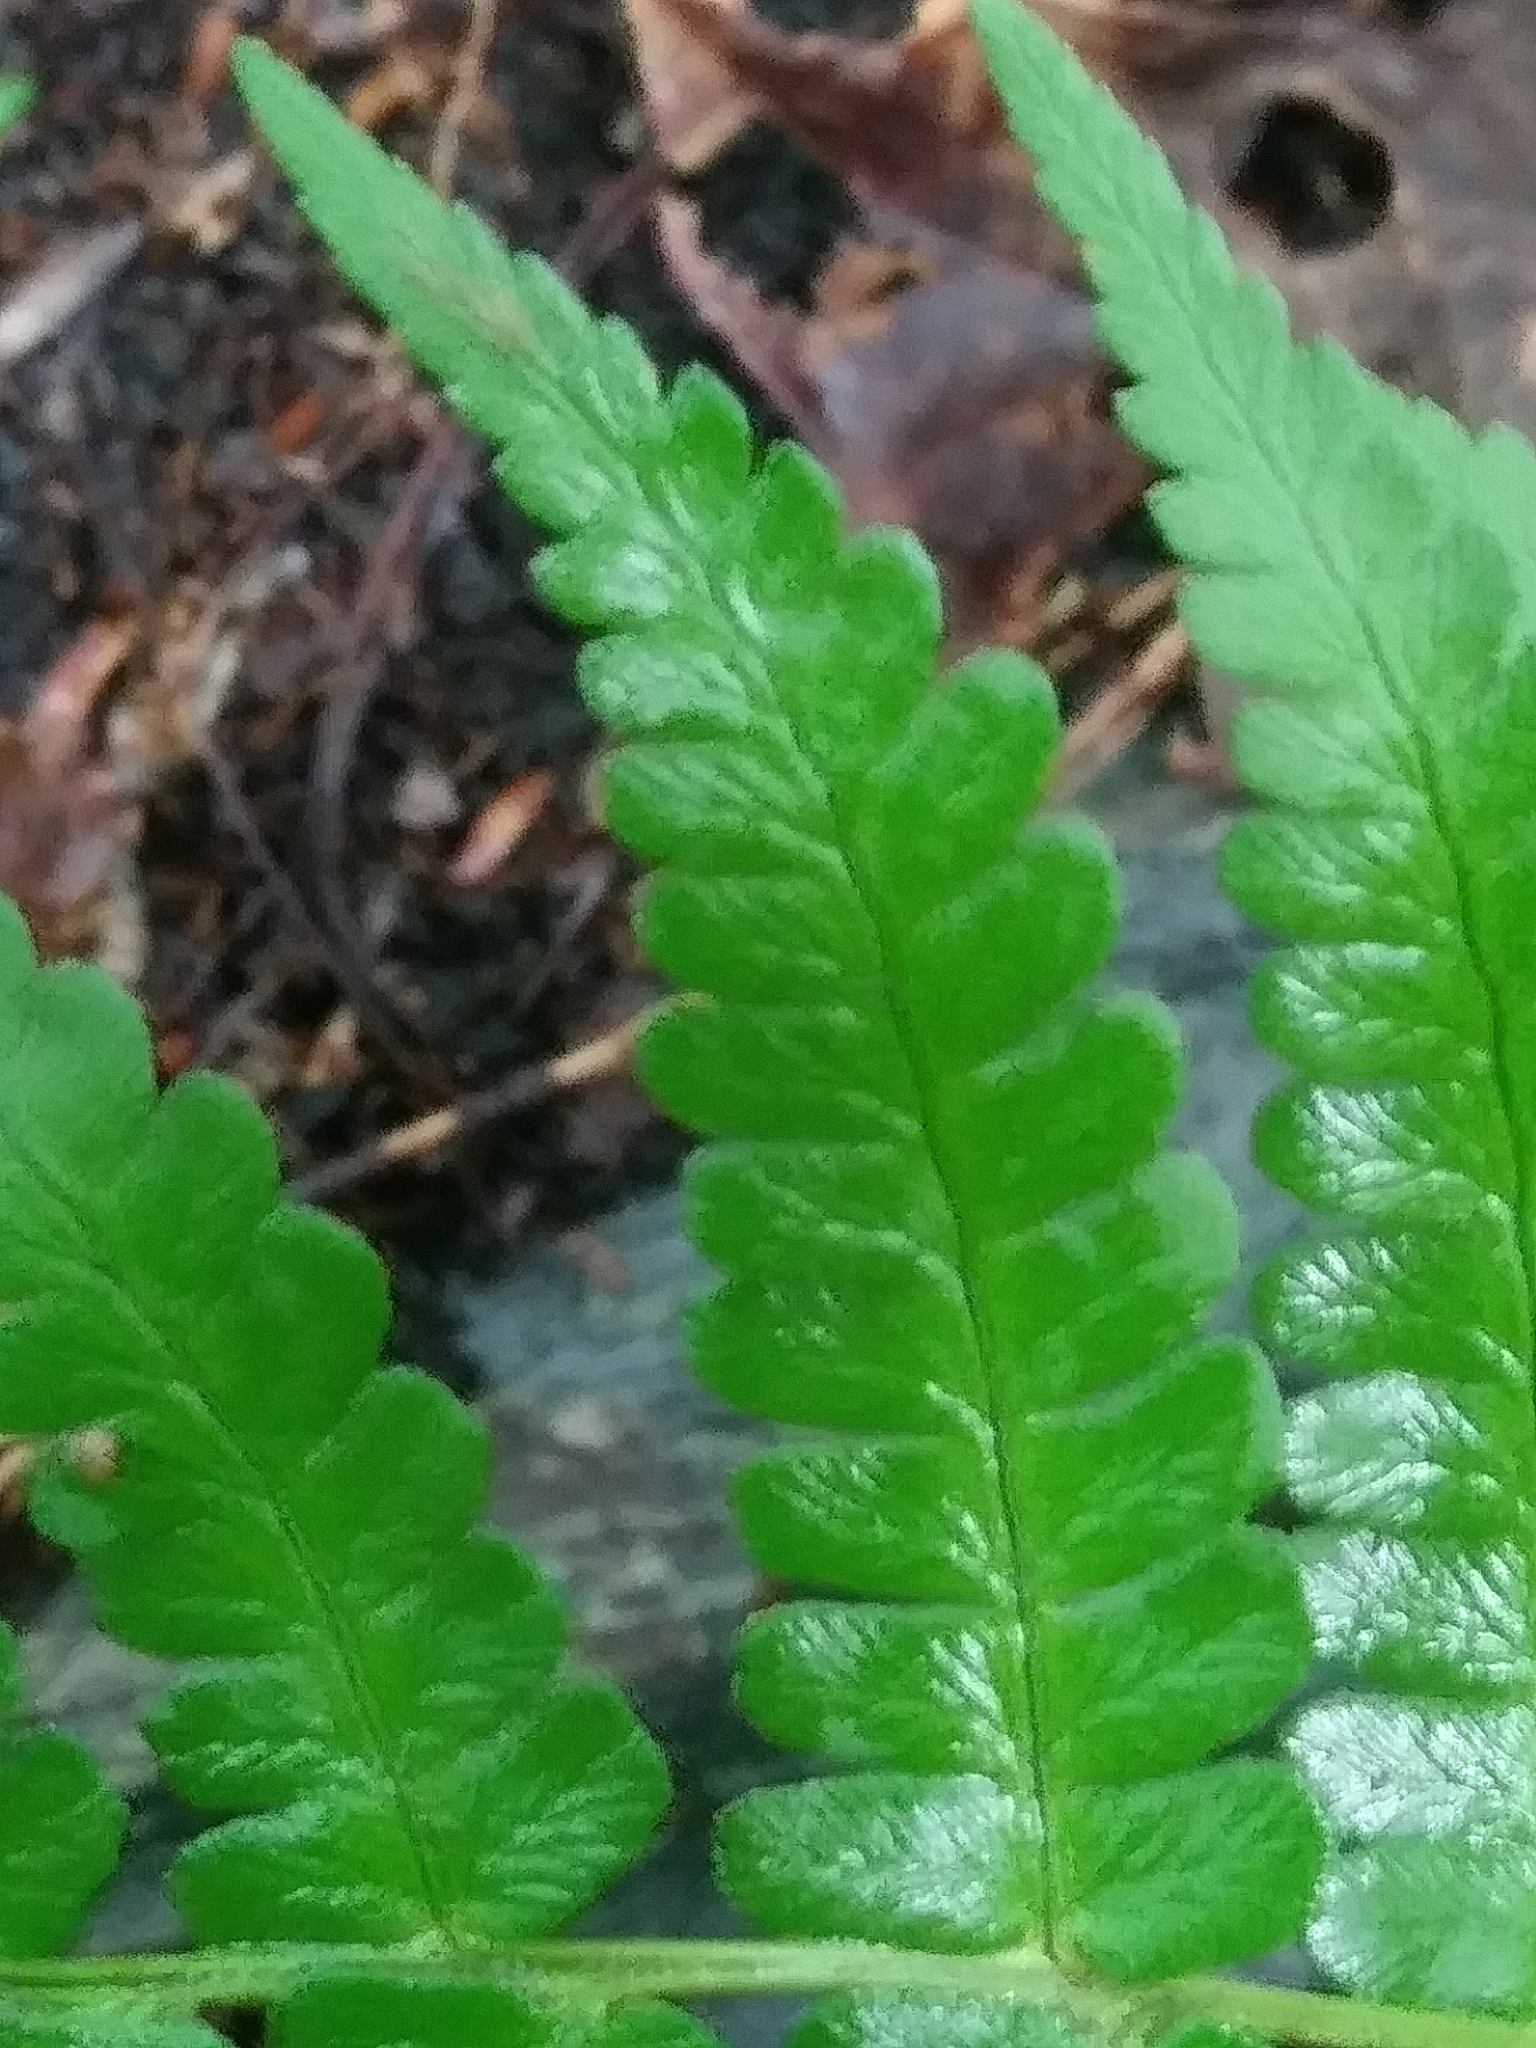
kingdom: Plantae
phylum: Tracheophyta
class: Polypodiopsida
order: Polypodiales
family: Dryopteridaceae
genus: Dryopteris
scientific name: Dryopteris marginalis
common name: Marginal wood fern
